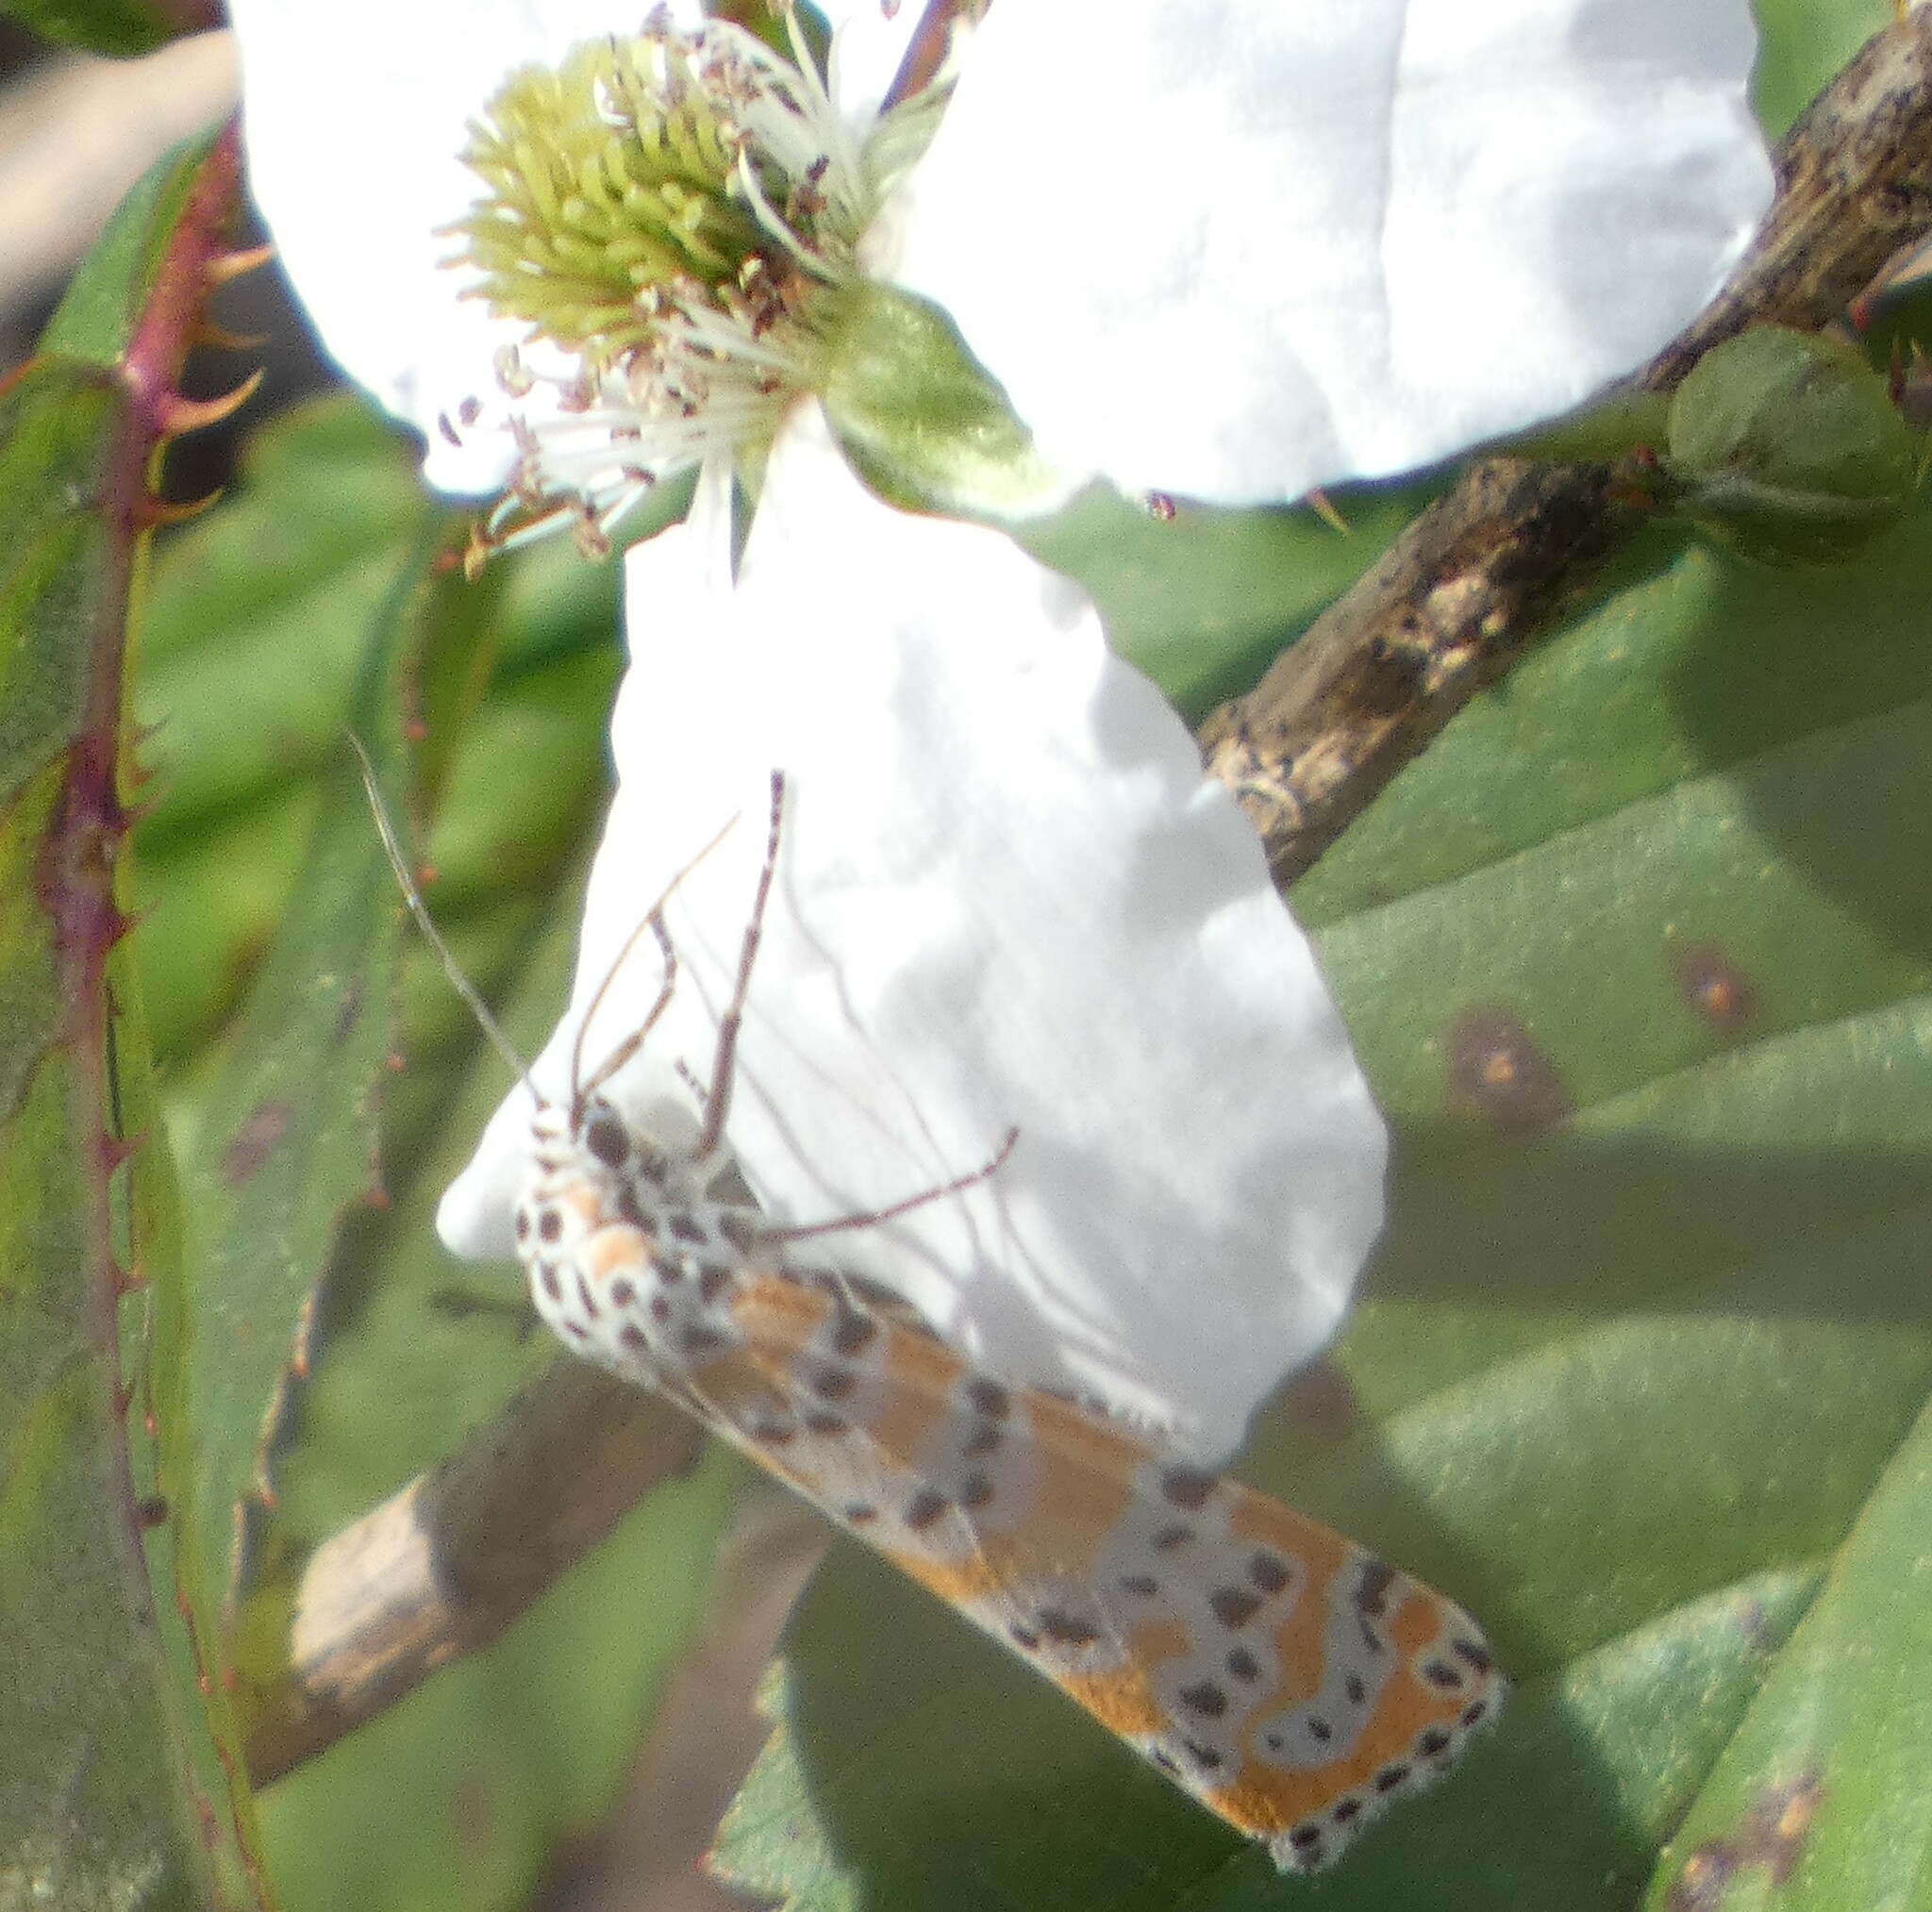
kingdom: Animalia
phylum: Arthropoda
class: Insecta
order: Lepidoptera
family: Erebidae
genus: Utetheisa
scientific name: Utetheisa ornatrix
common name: Beautiful utetheisa
